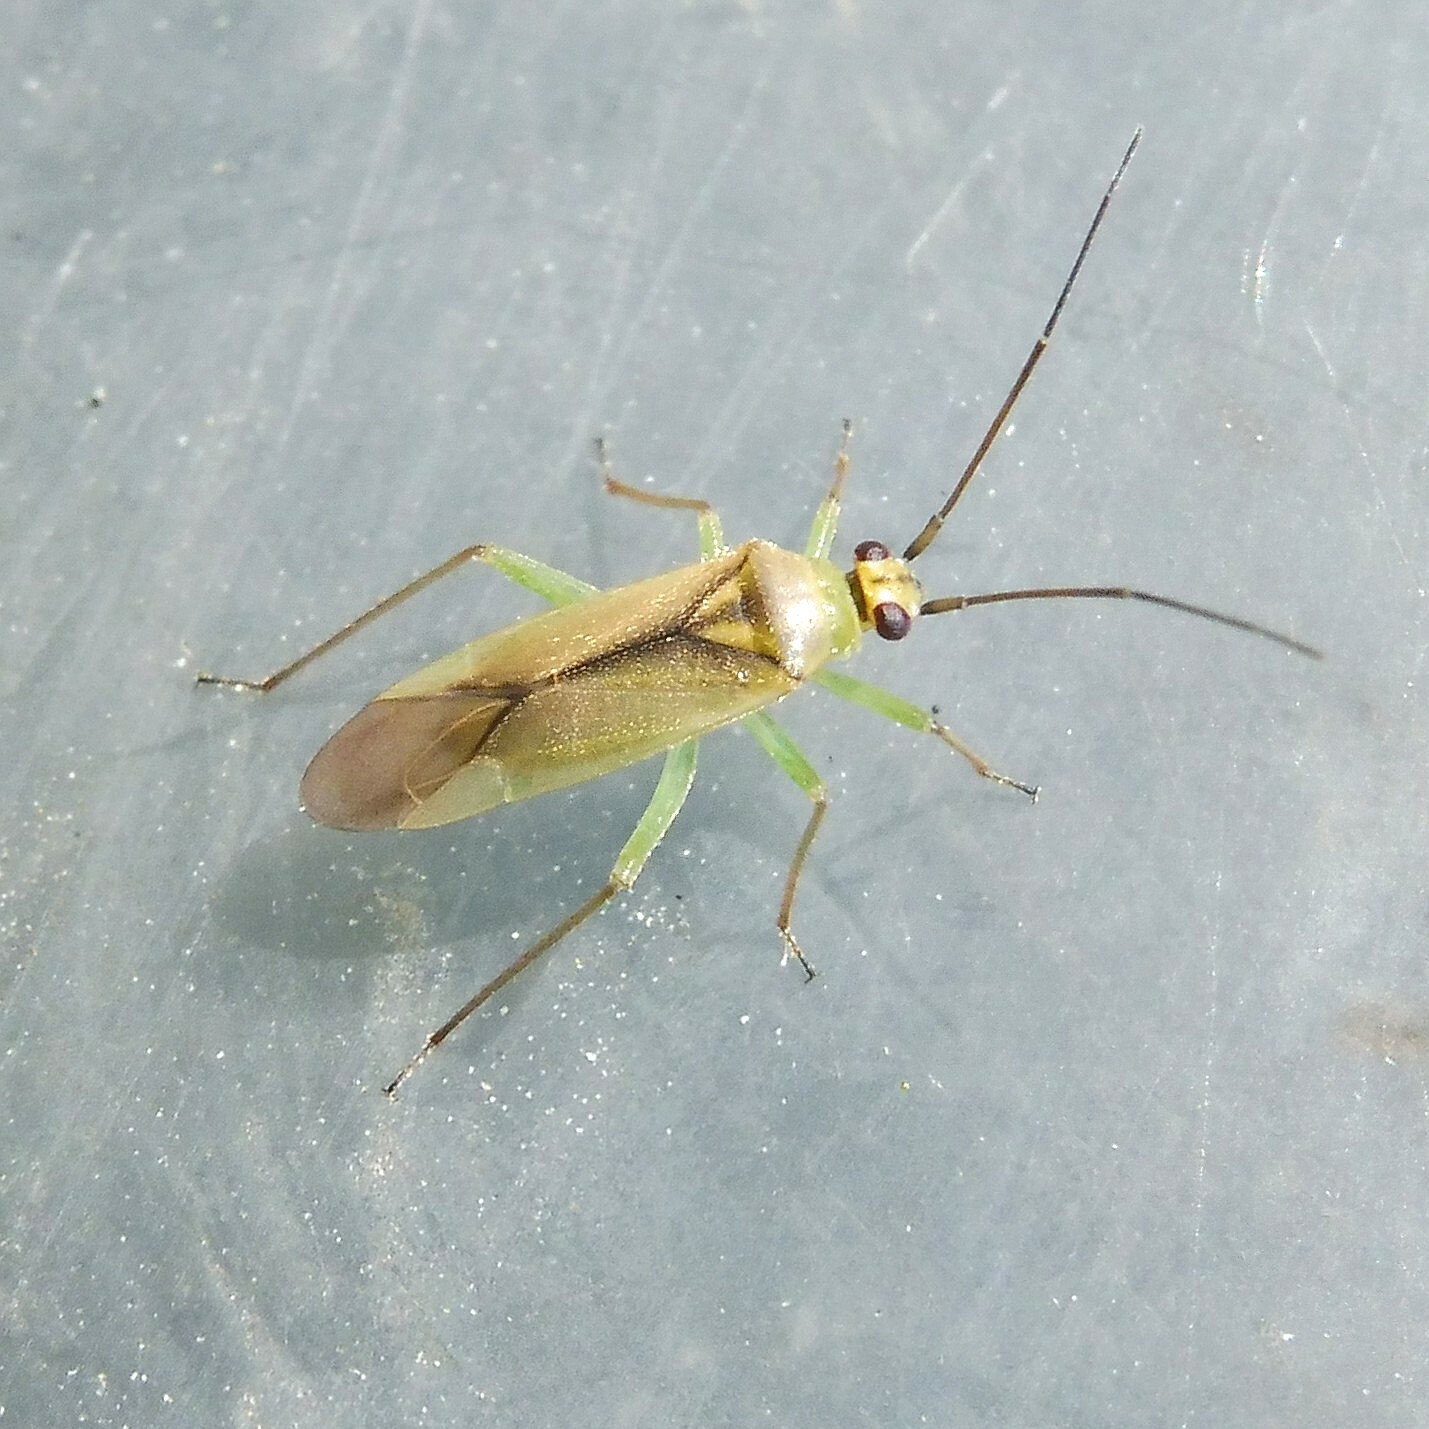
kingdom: Animalia
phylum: Arthropoda
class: Insecta
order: Hemiptera
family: Miridae
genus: Orthotylus
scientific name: Orthotylus bilineatus
